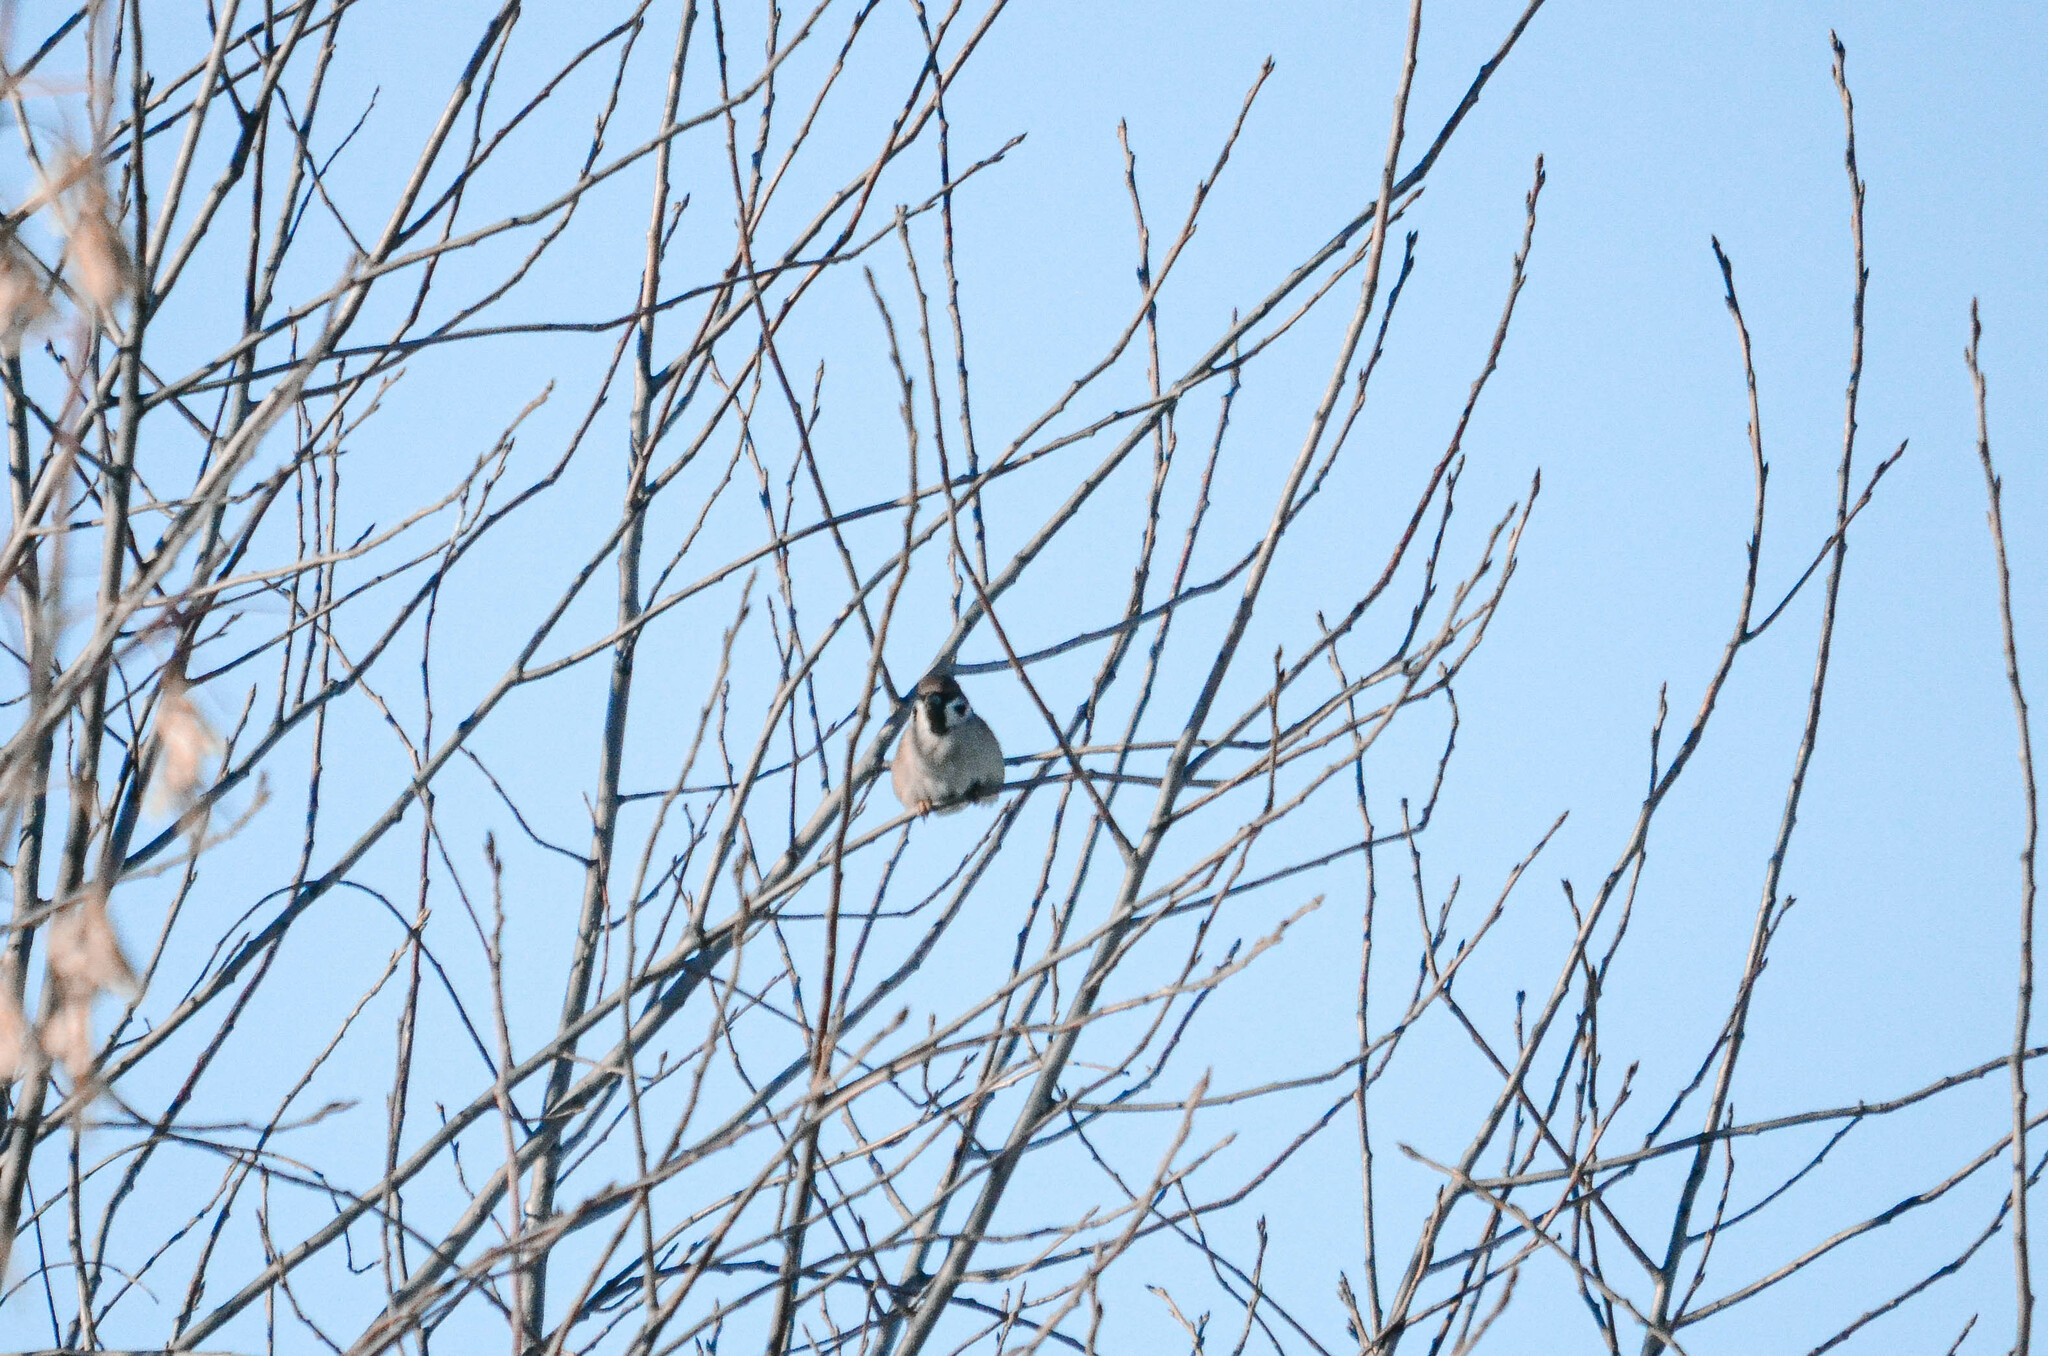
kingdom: Animalia
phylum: Chordata
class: Aves
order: Passeriformes
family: Passeridae
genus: Passer
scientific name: Passer montanus
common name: Eurasian tree sparrow
